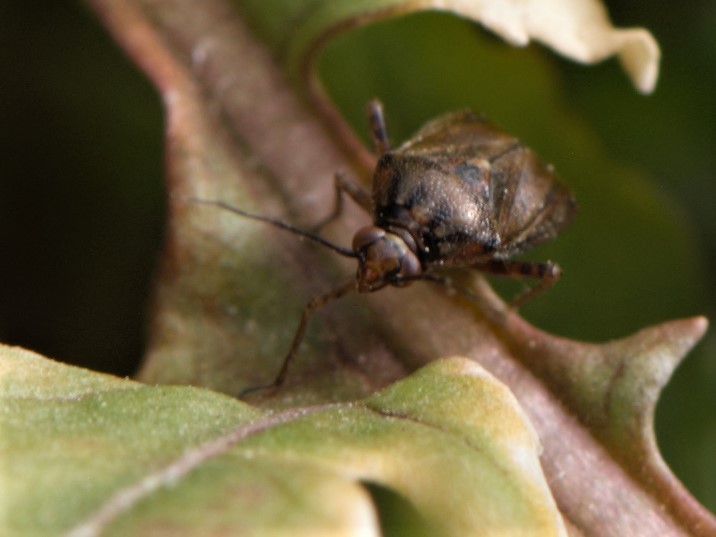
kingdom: Animalia
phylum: Arthropoda
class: Insecta
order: Hemiptera
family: Miridae
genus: Lygus
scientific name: Lygus
